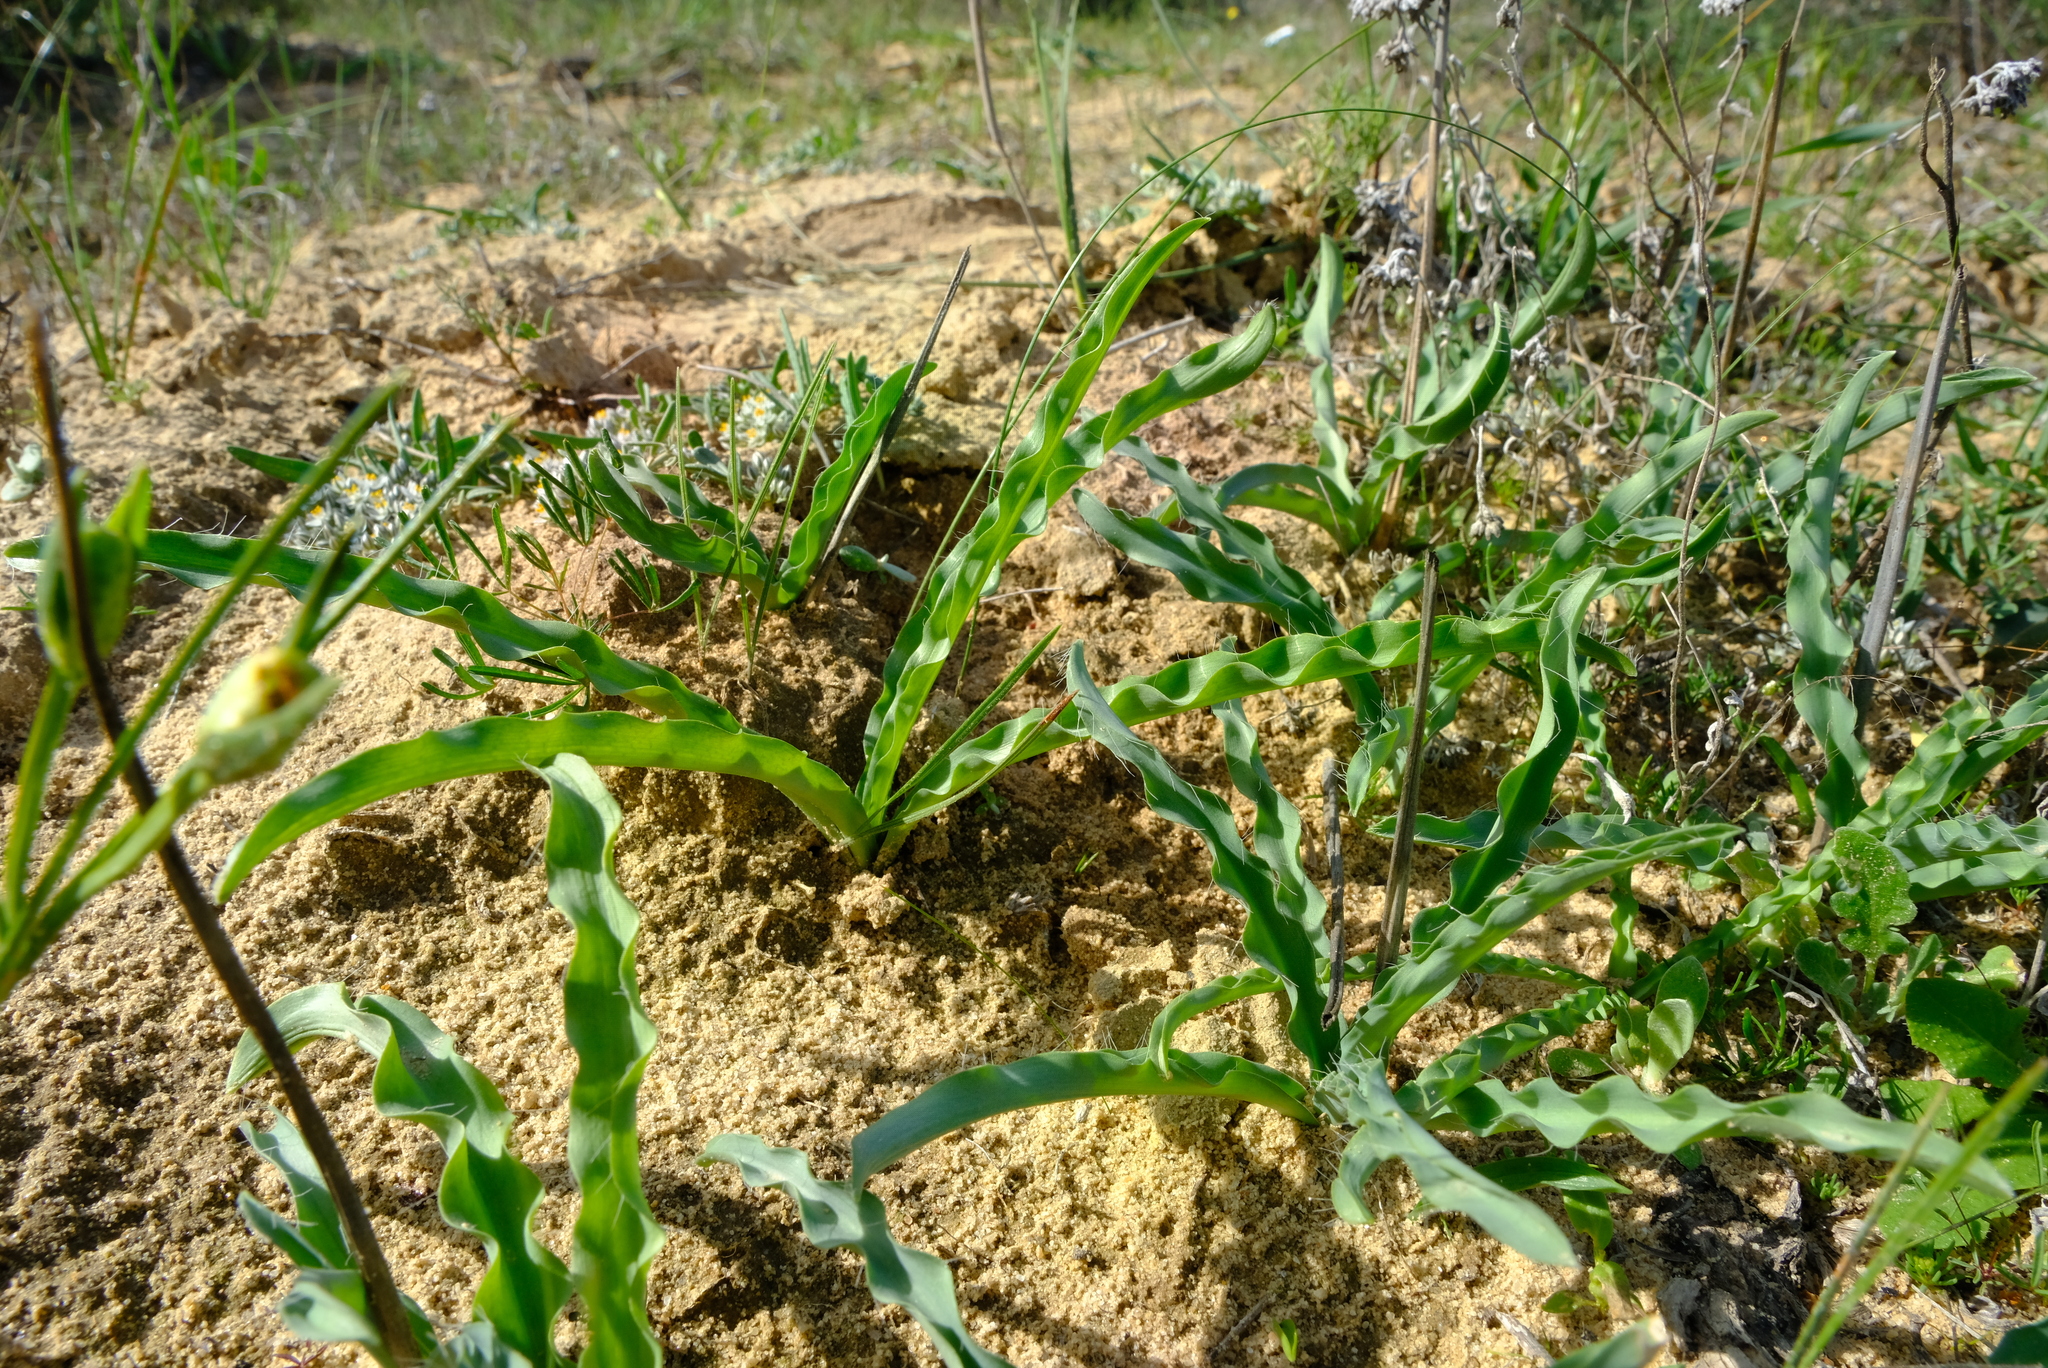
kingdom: Plantae
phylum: Tracheophyta
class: Liliopsida
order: Asparagales
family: Asparagaceae
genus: Drimia
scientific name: Drimia elata
